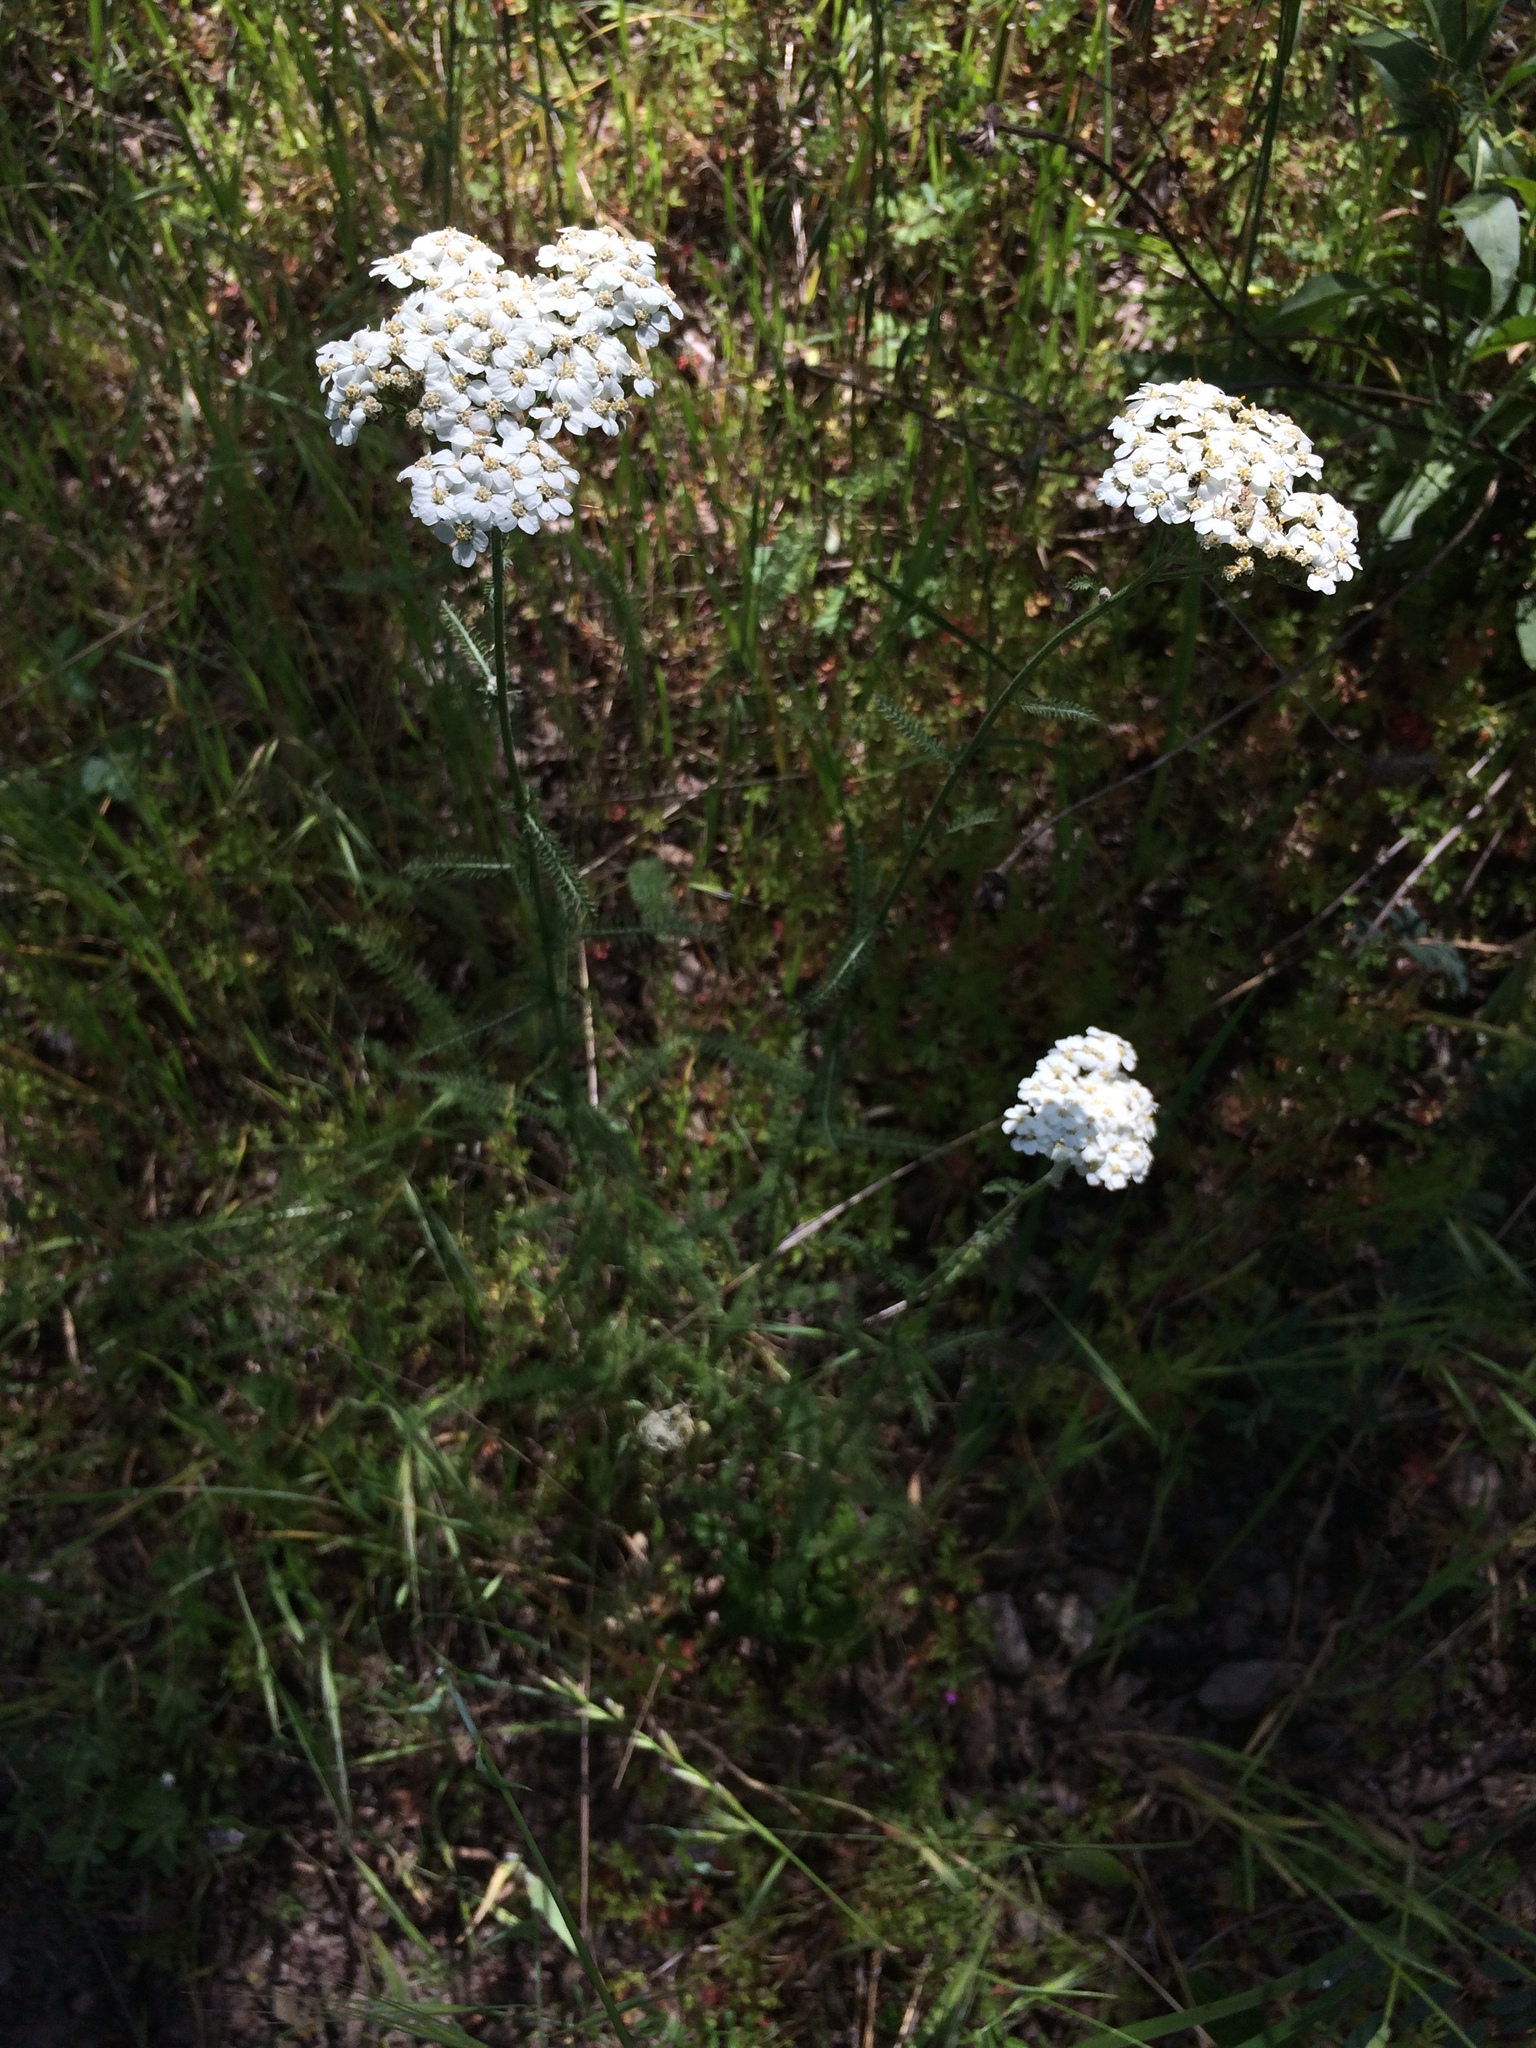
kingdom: Plantae
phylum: Tracheophyta
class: Magnoliopsida
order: Asterales
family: Asteraceae
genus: Achillea
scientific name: Achillea millefolium
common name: Yarrow
